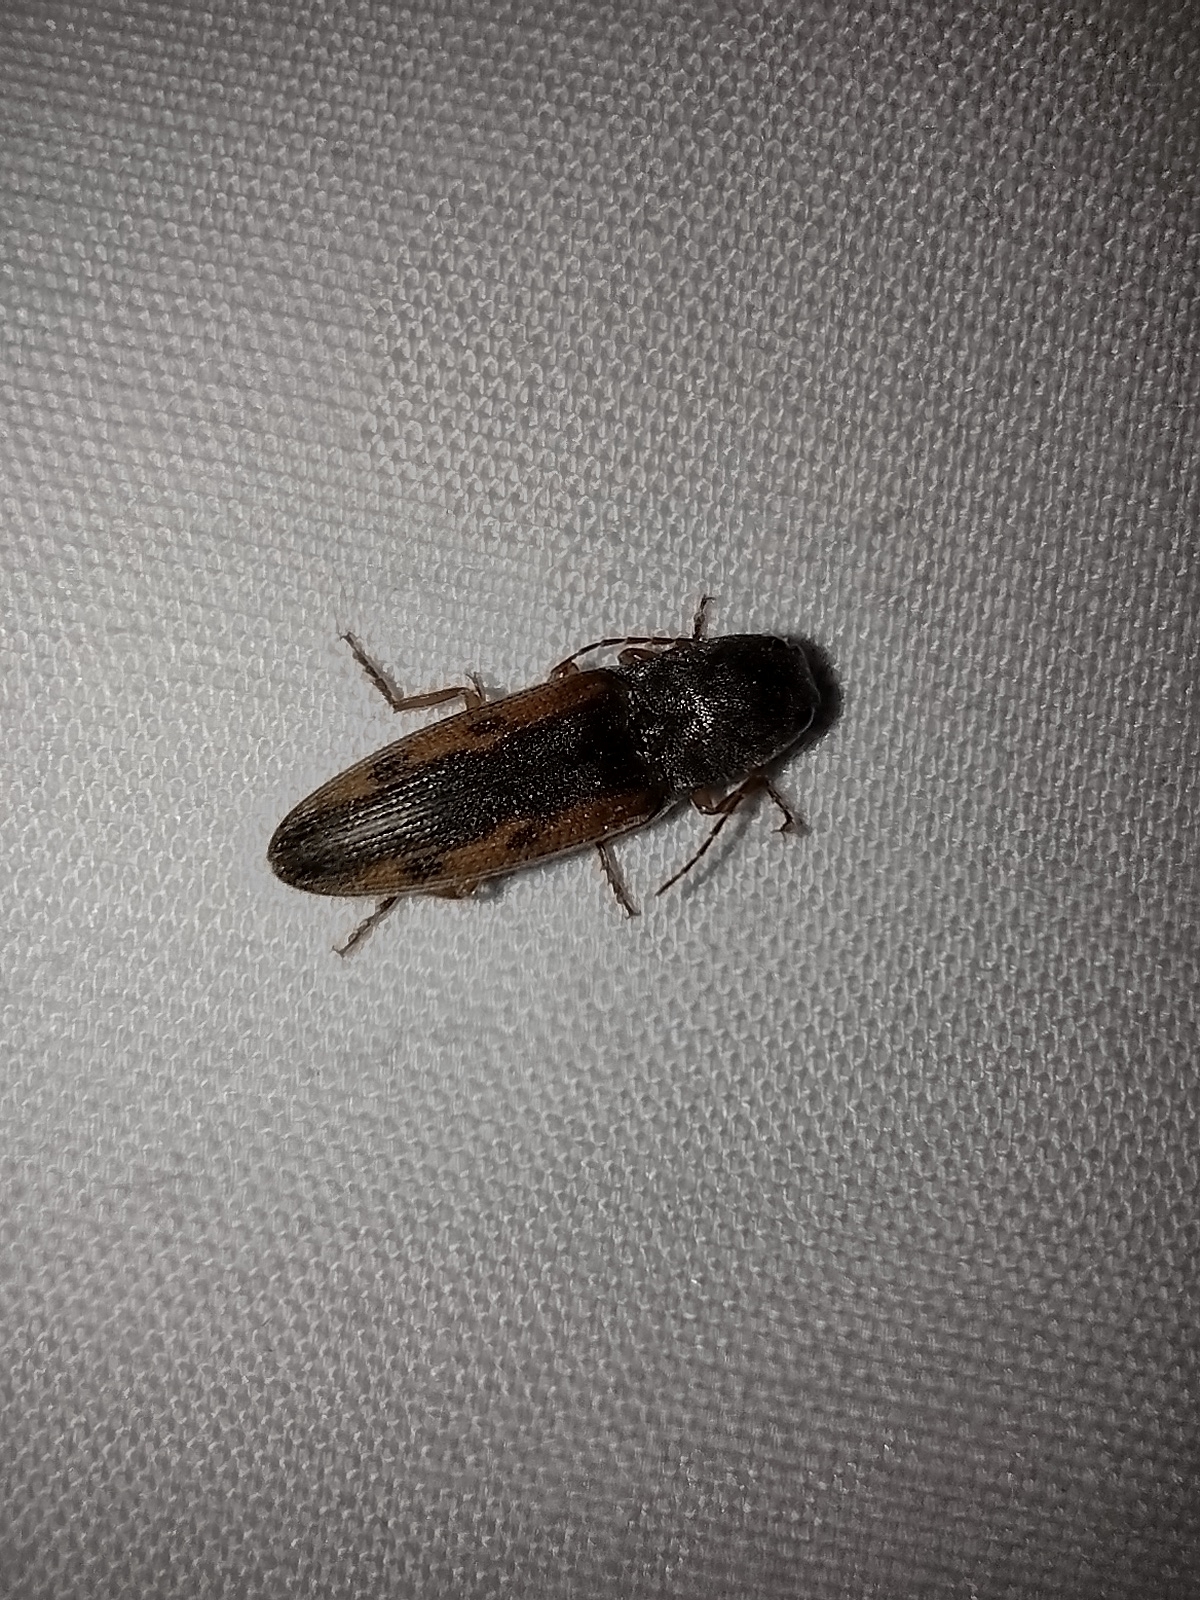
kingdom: Animalia
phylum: Arthropoda
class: Insecta
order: Coleoptera
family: Elateridae
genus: Monocrepidius
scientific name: Monocrepidius
